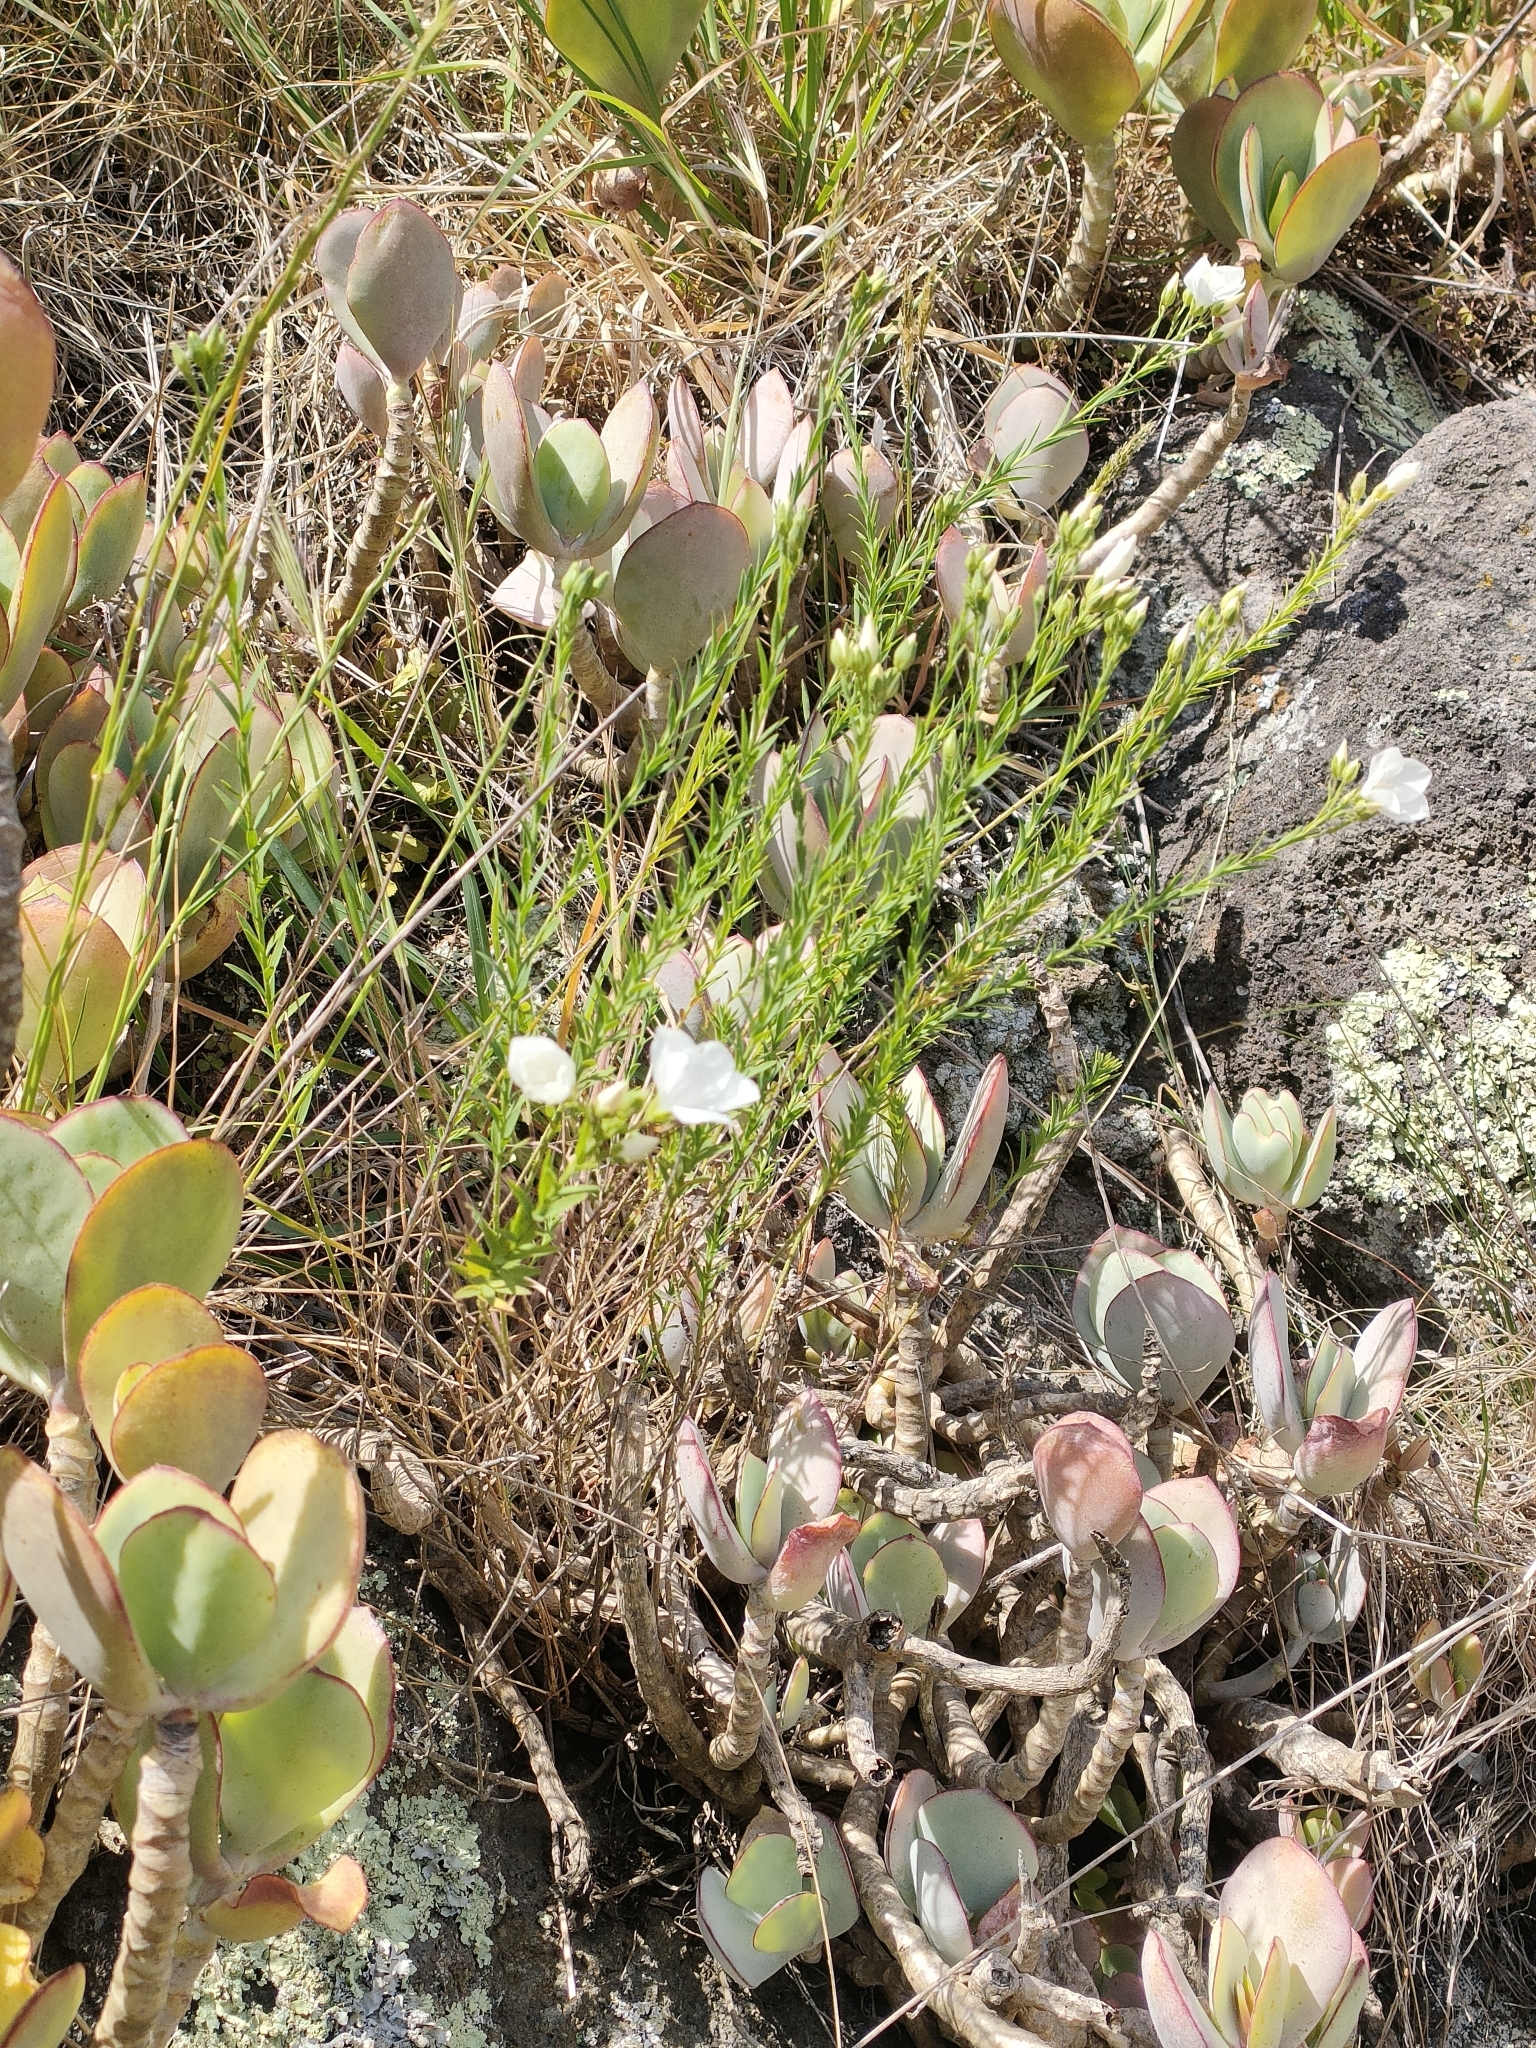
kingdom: Plantae
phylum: Tracheophyta
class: Magnoliopsida
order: Malpighiales
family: Linaceae
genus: Linum
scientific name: Linum monogynum
